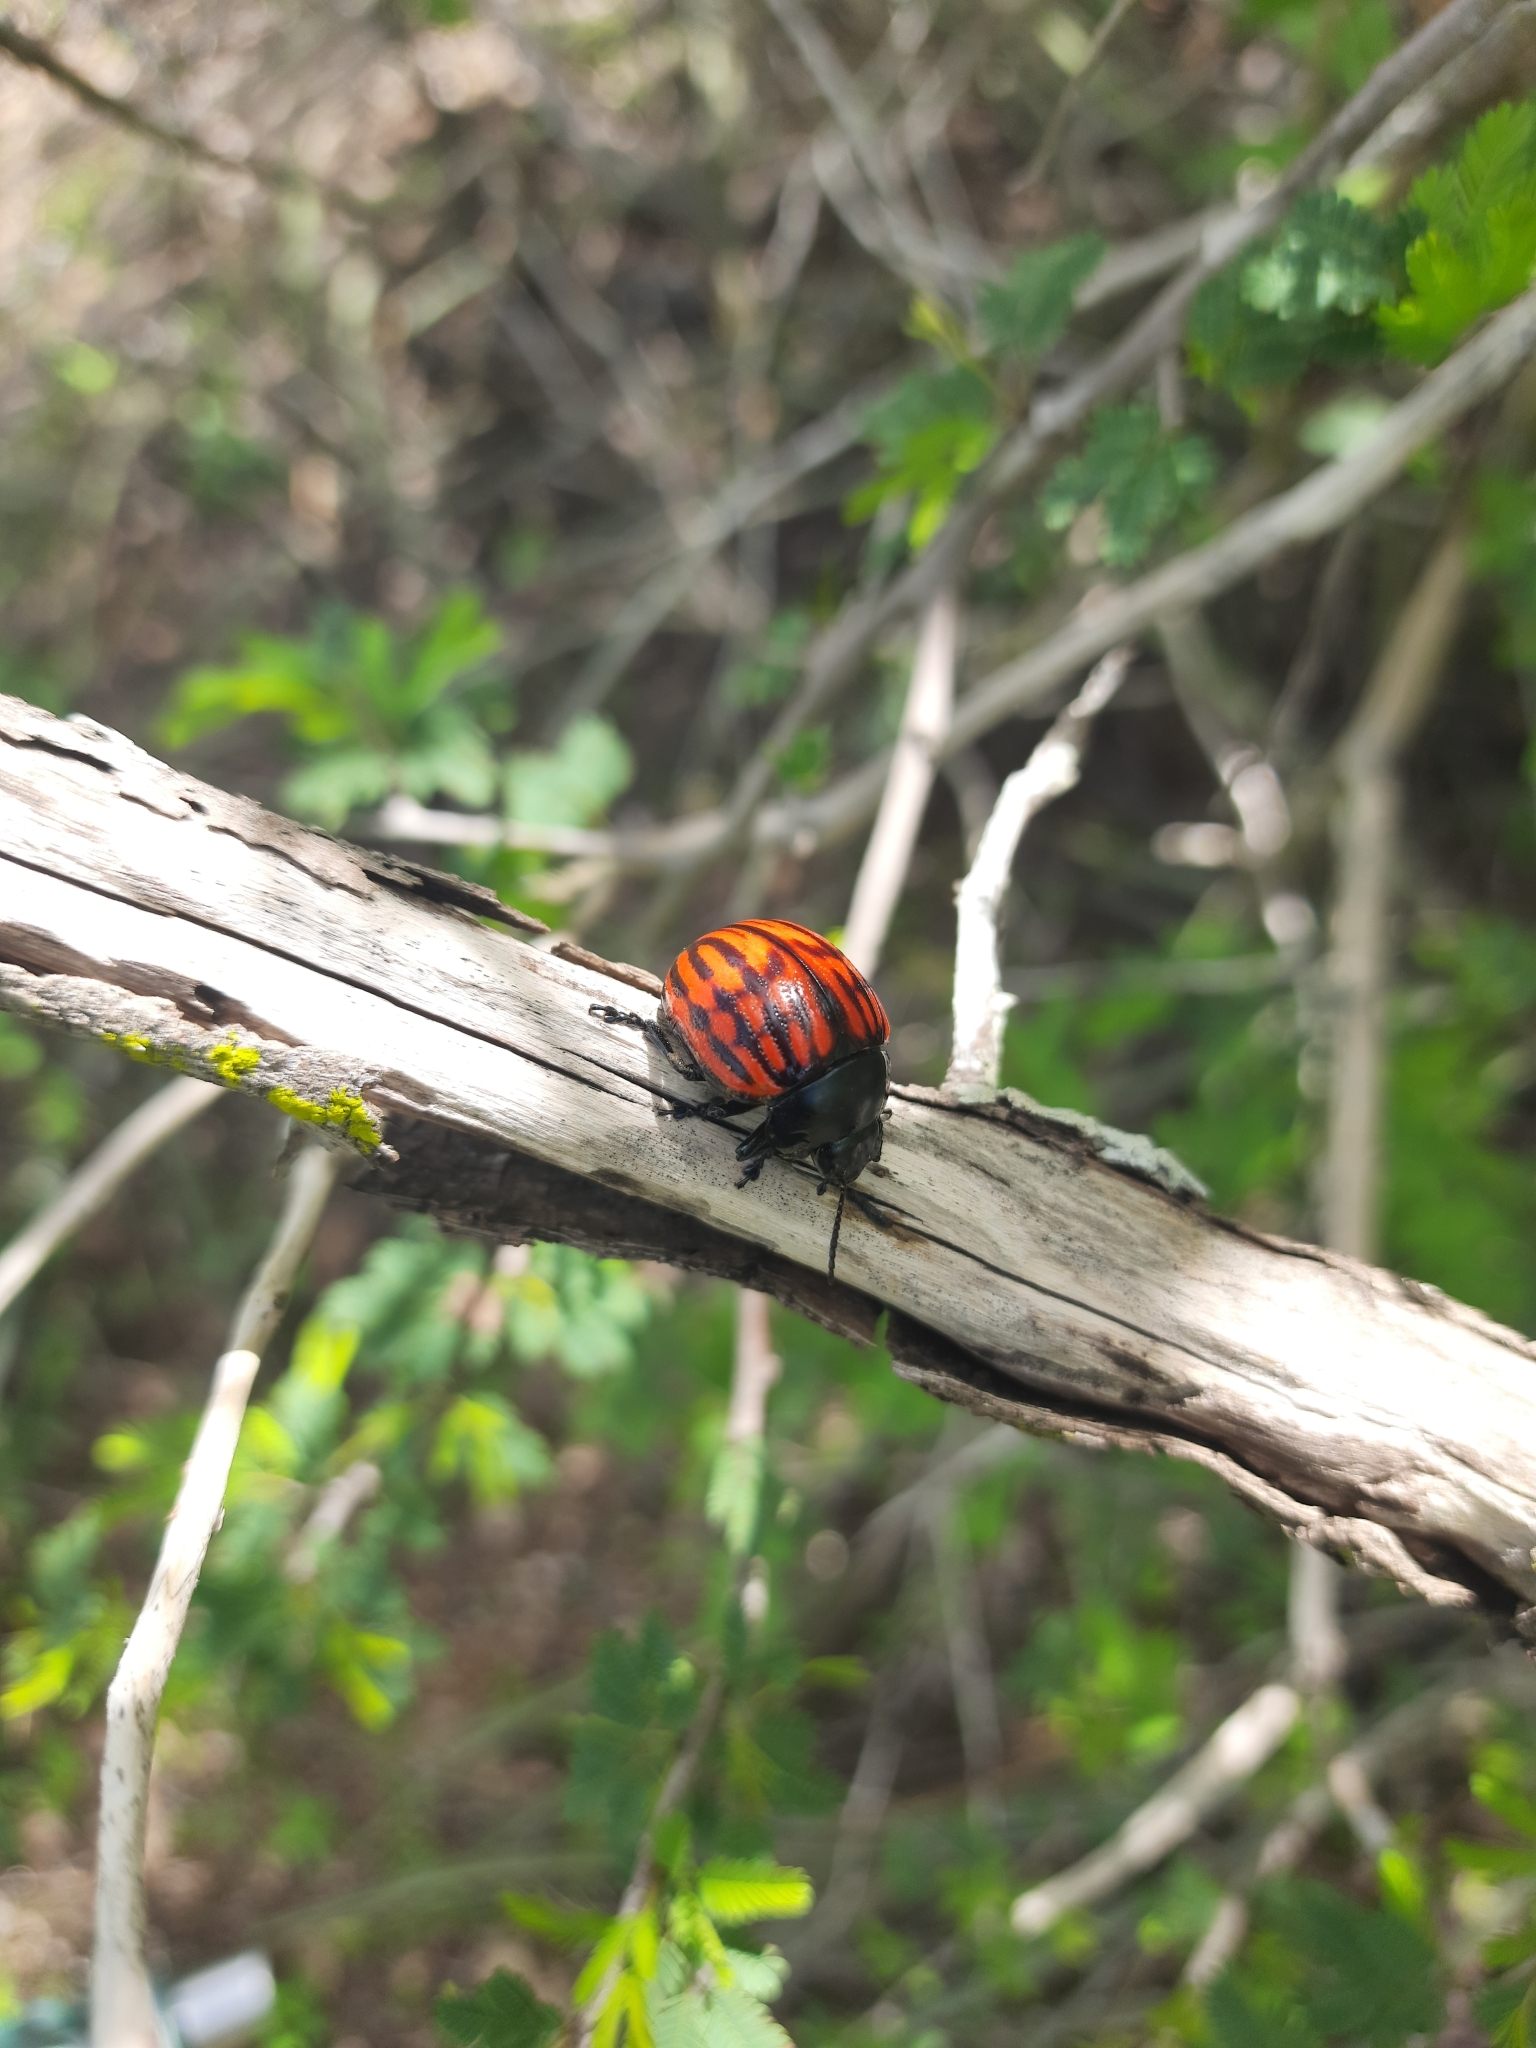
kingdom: Animalia
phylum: Arthropoda
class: Insecta
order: Coleoptera
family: Chrysomelidae
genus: Platyphora
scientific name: Platyphora
